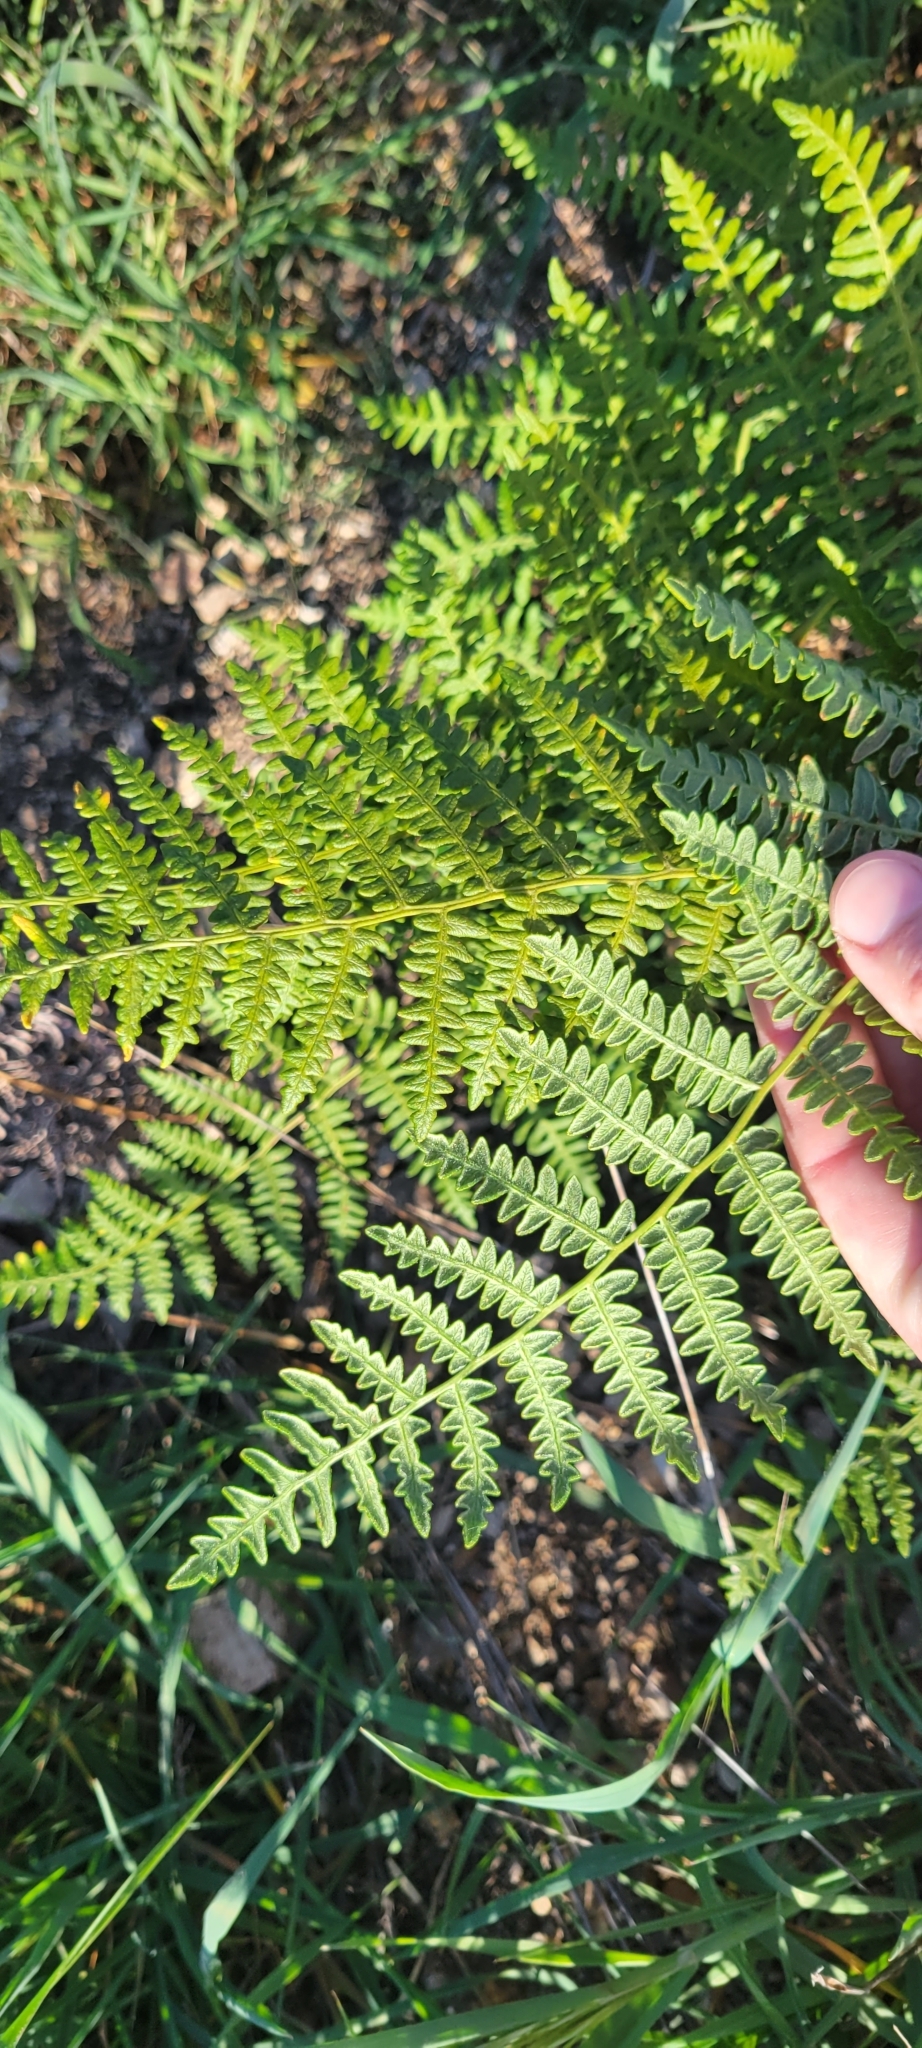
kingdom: Plantae
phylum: Tracheophyta
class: Polypodiopsida
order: Polypodiales
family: Dennstaedtiaceae
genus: Pteridium
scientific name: Pteridium aquilinum
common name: Bracken
